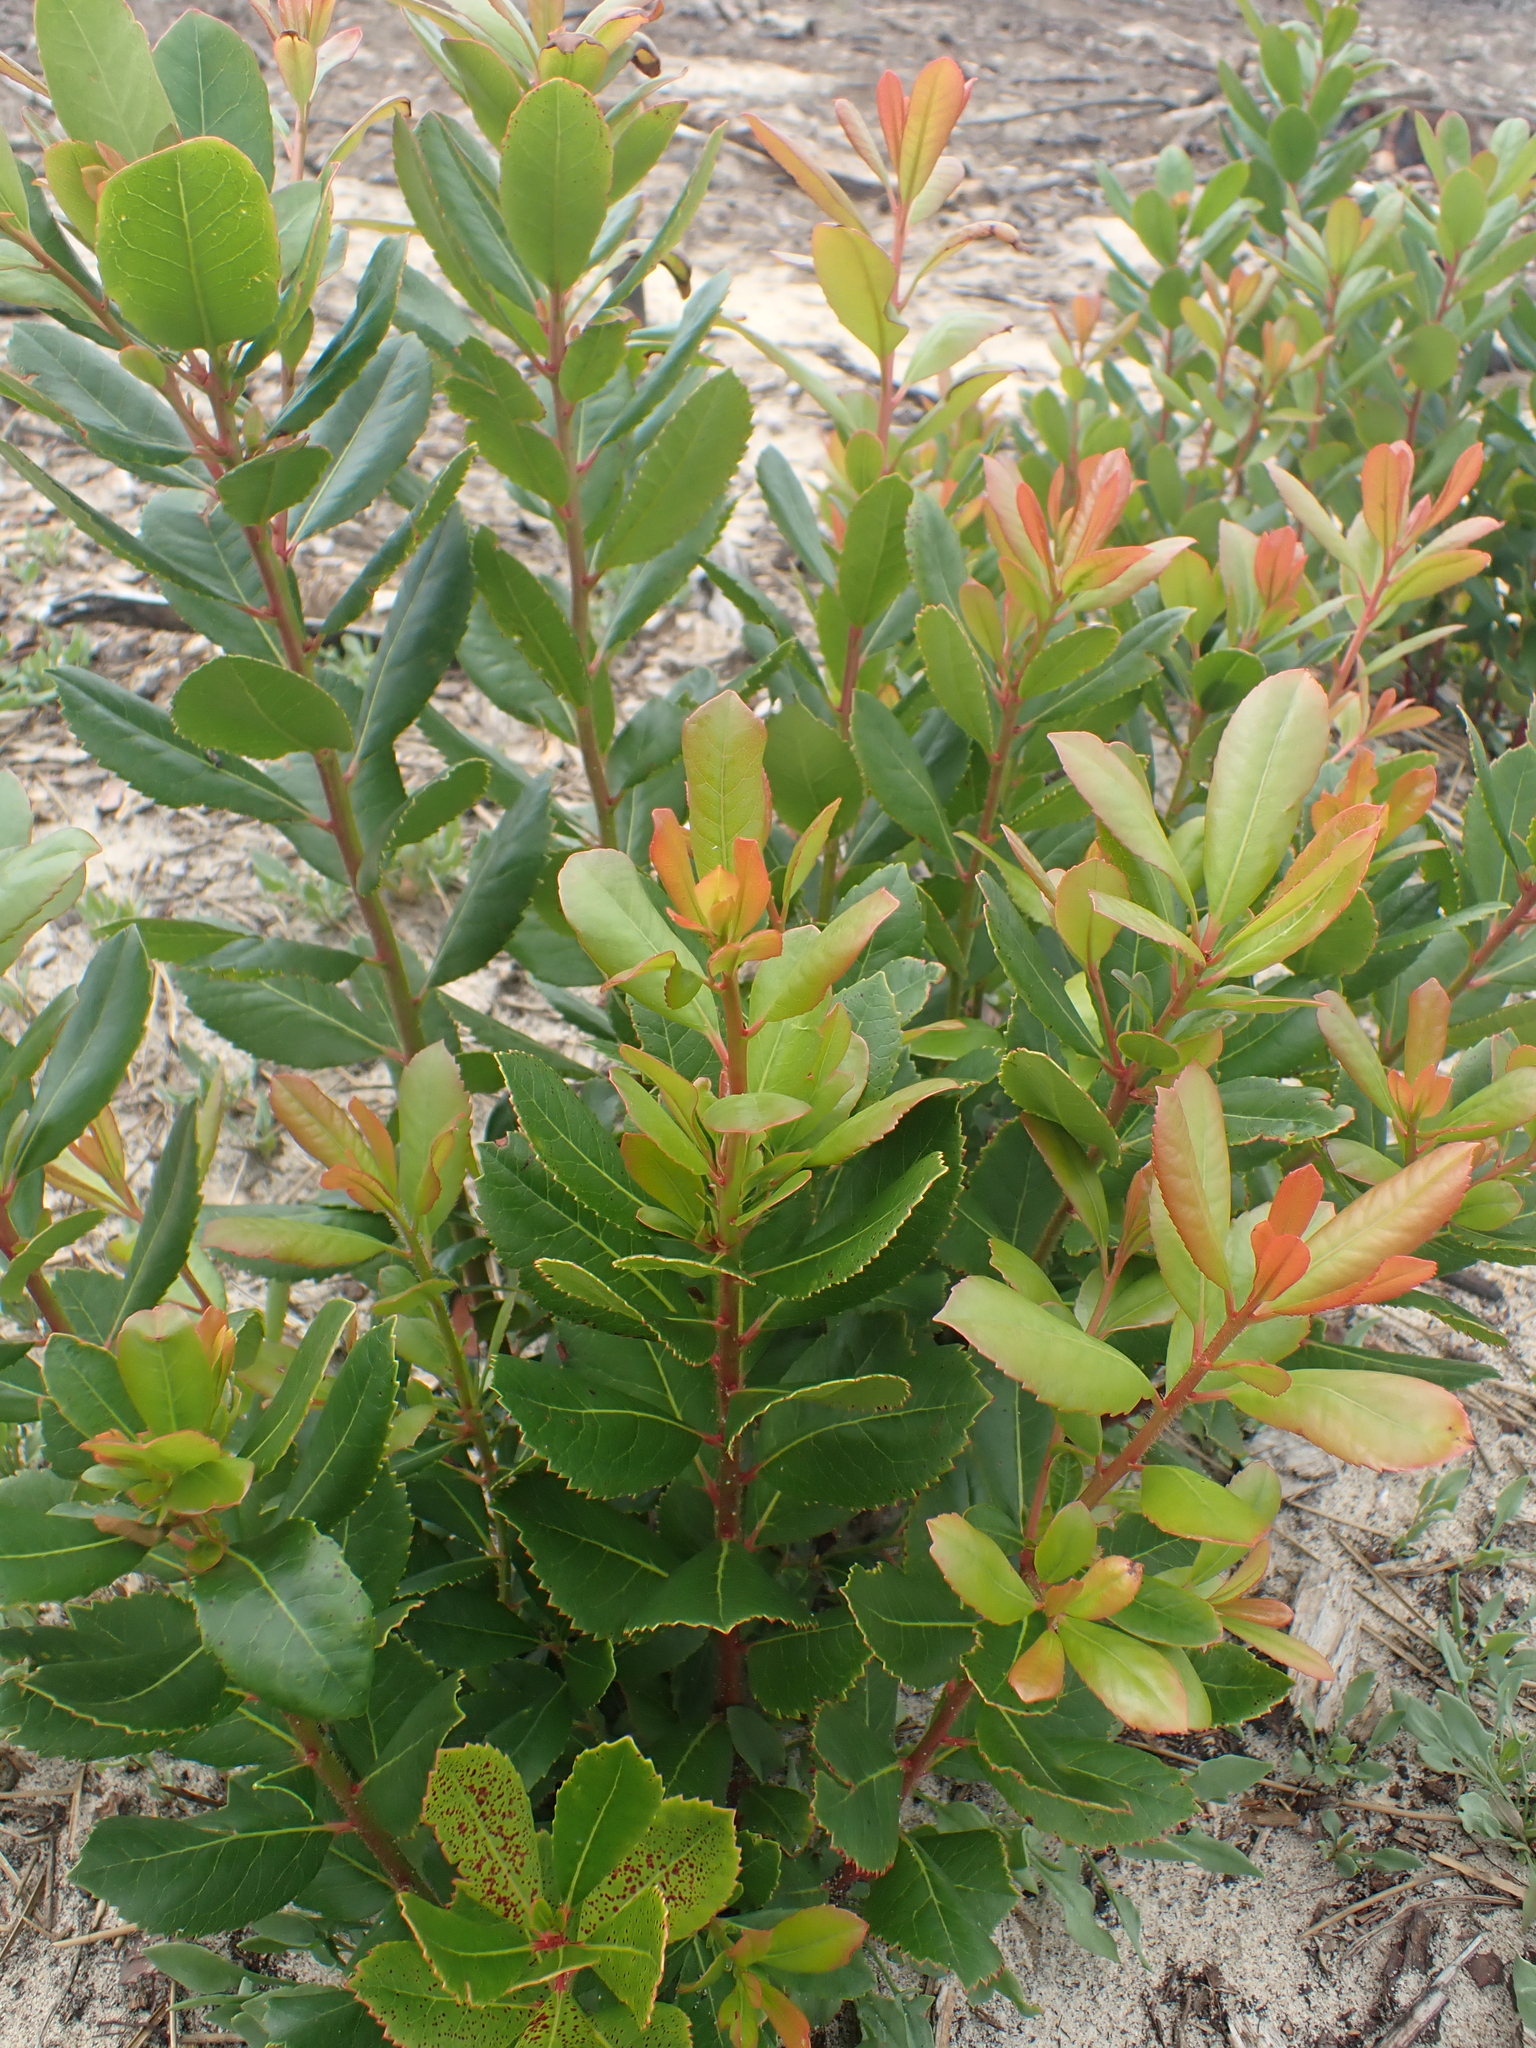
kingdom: Plantae
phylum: Tracheophyta
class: Magnoliopsida
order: Ericales
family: Ericaceae
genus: Arbutus
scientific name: Arbutus unedo
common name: Strawberry-tree
